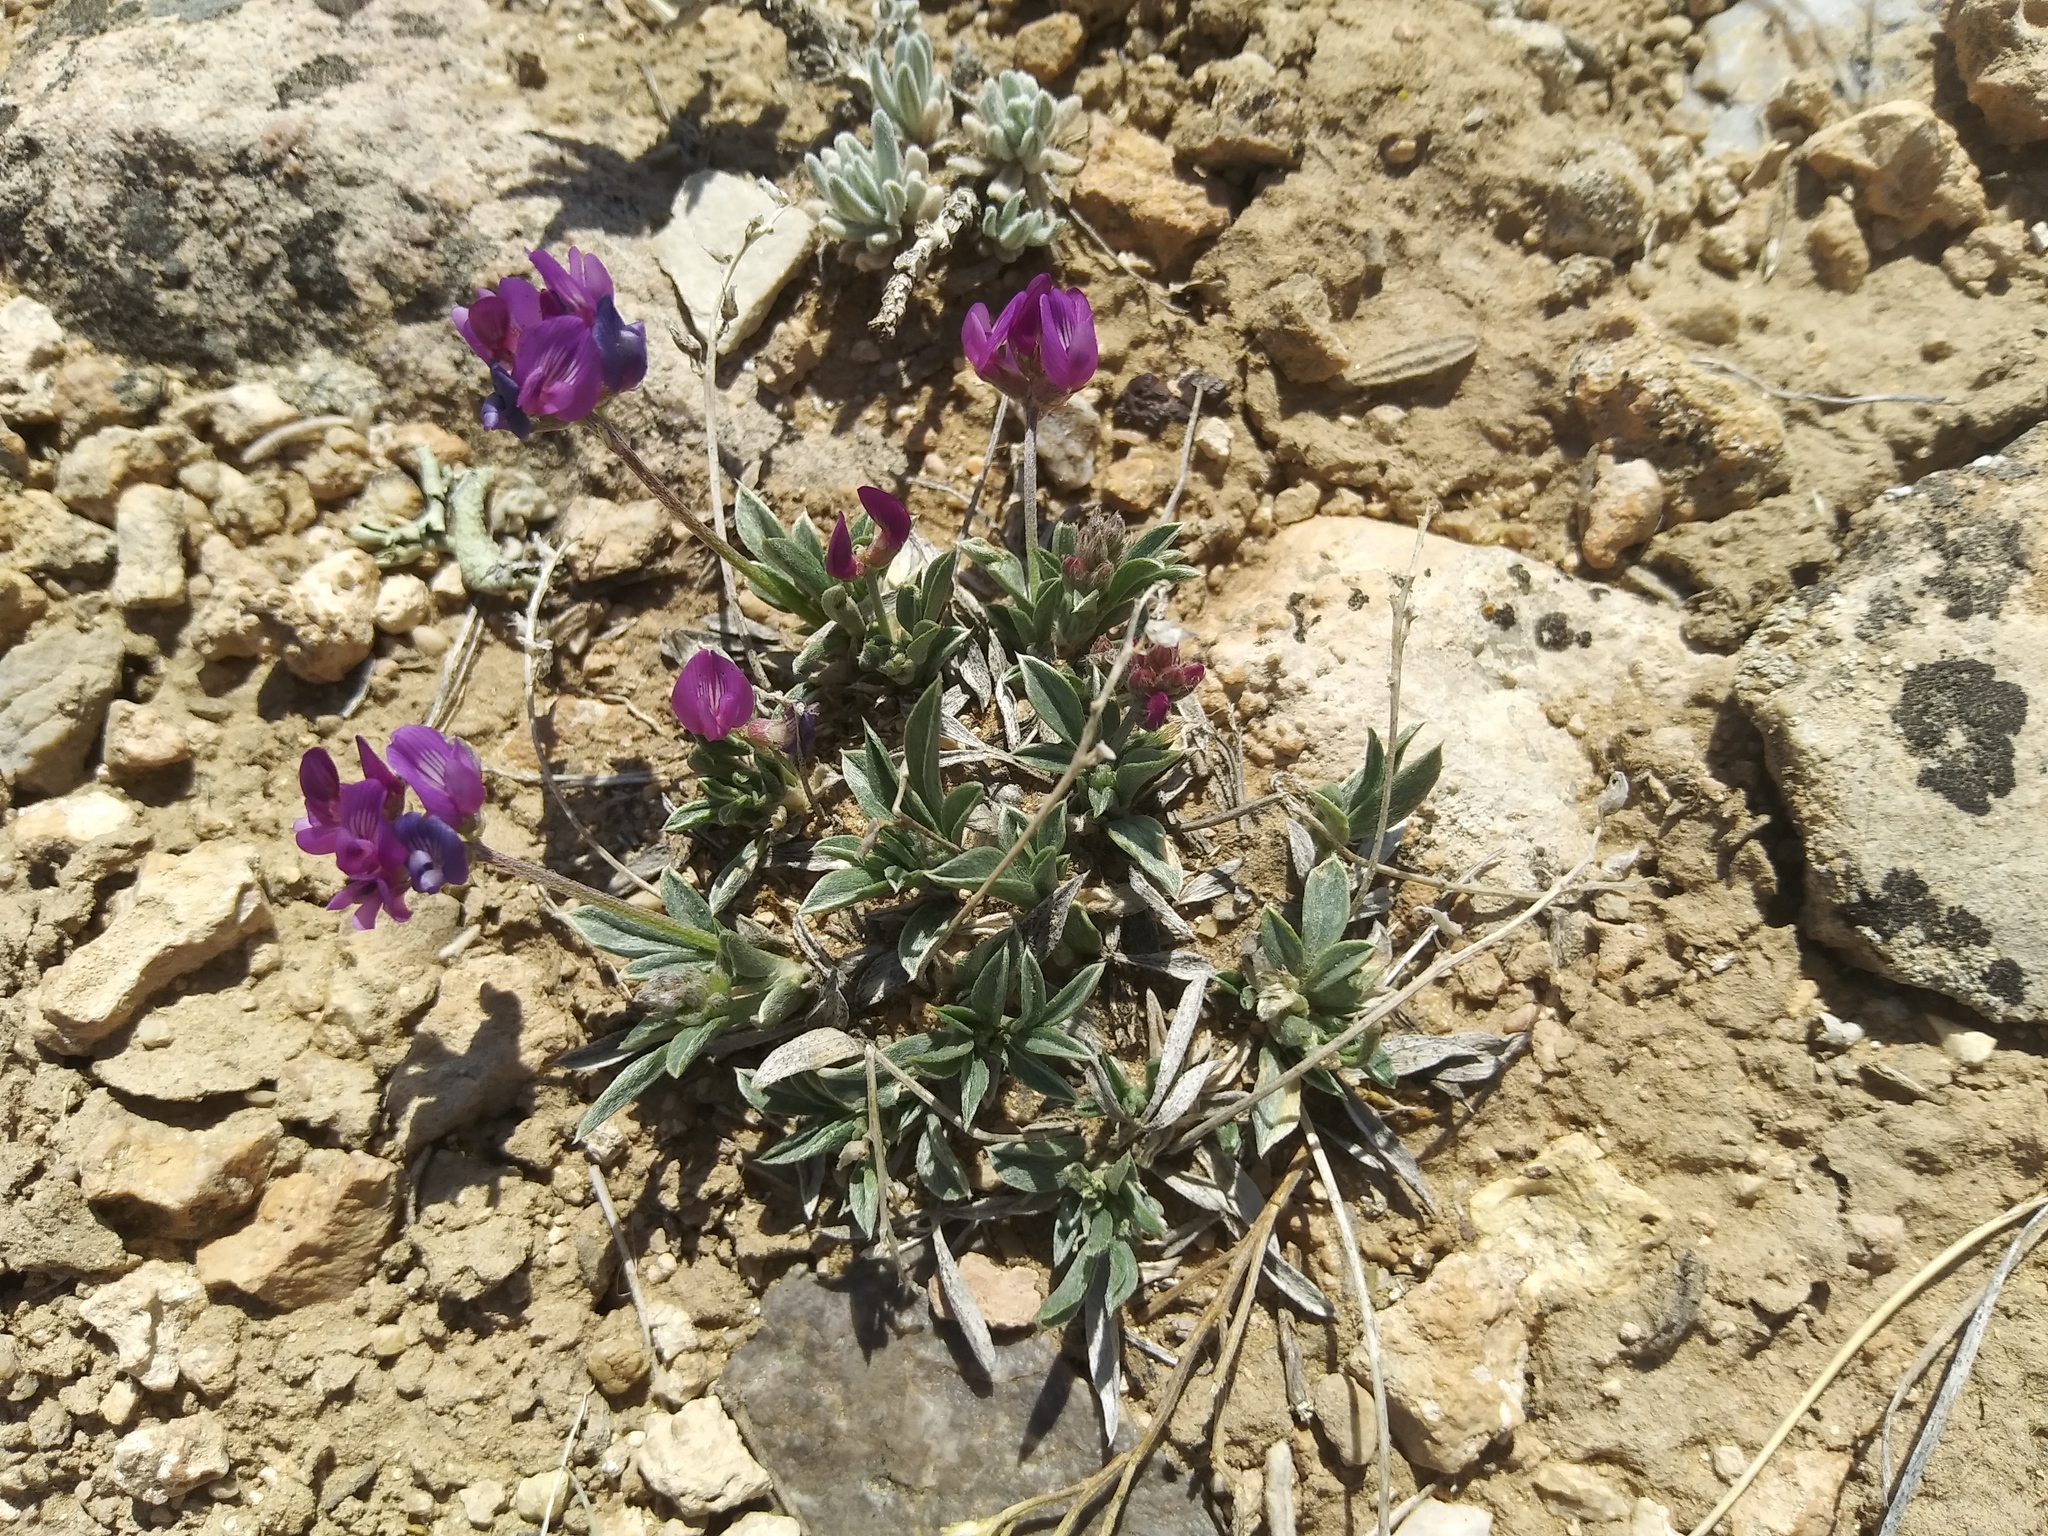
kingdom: Plantae
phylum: Tracheophyta
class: Magnoliopsida
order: Fabales
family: Fabaceae
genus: Astragalus
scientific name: Astragalus spatulatus
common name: Draba milk-vetch
